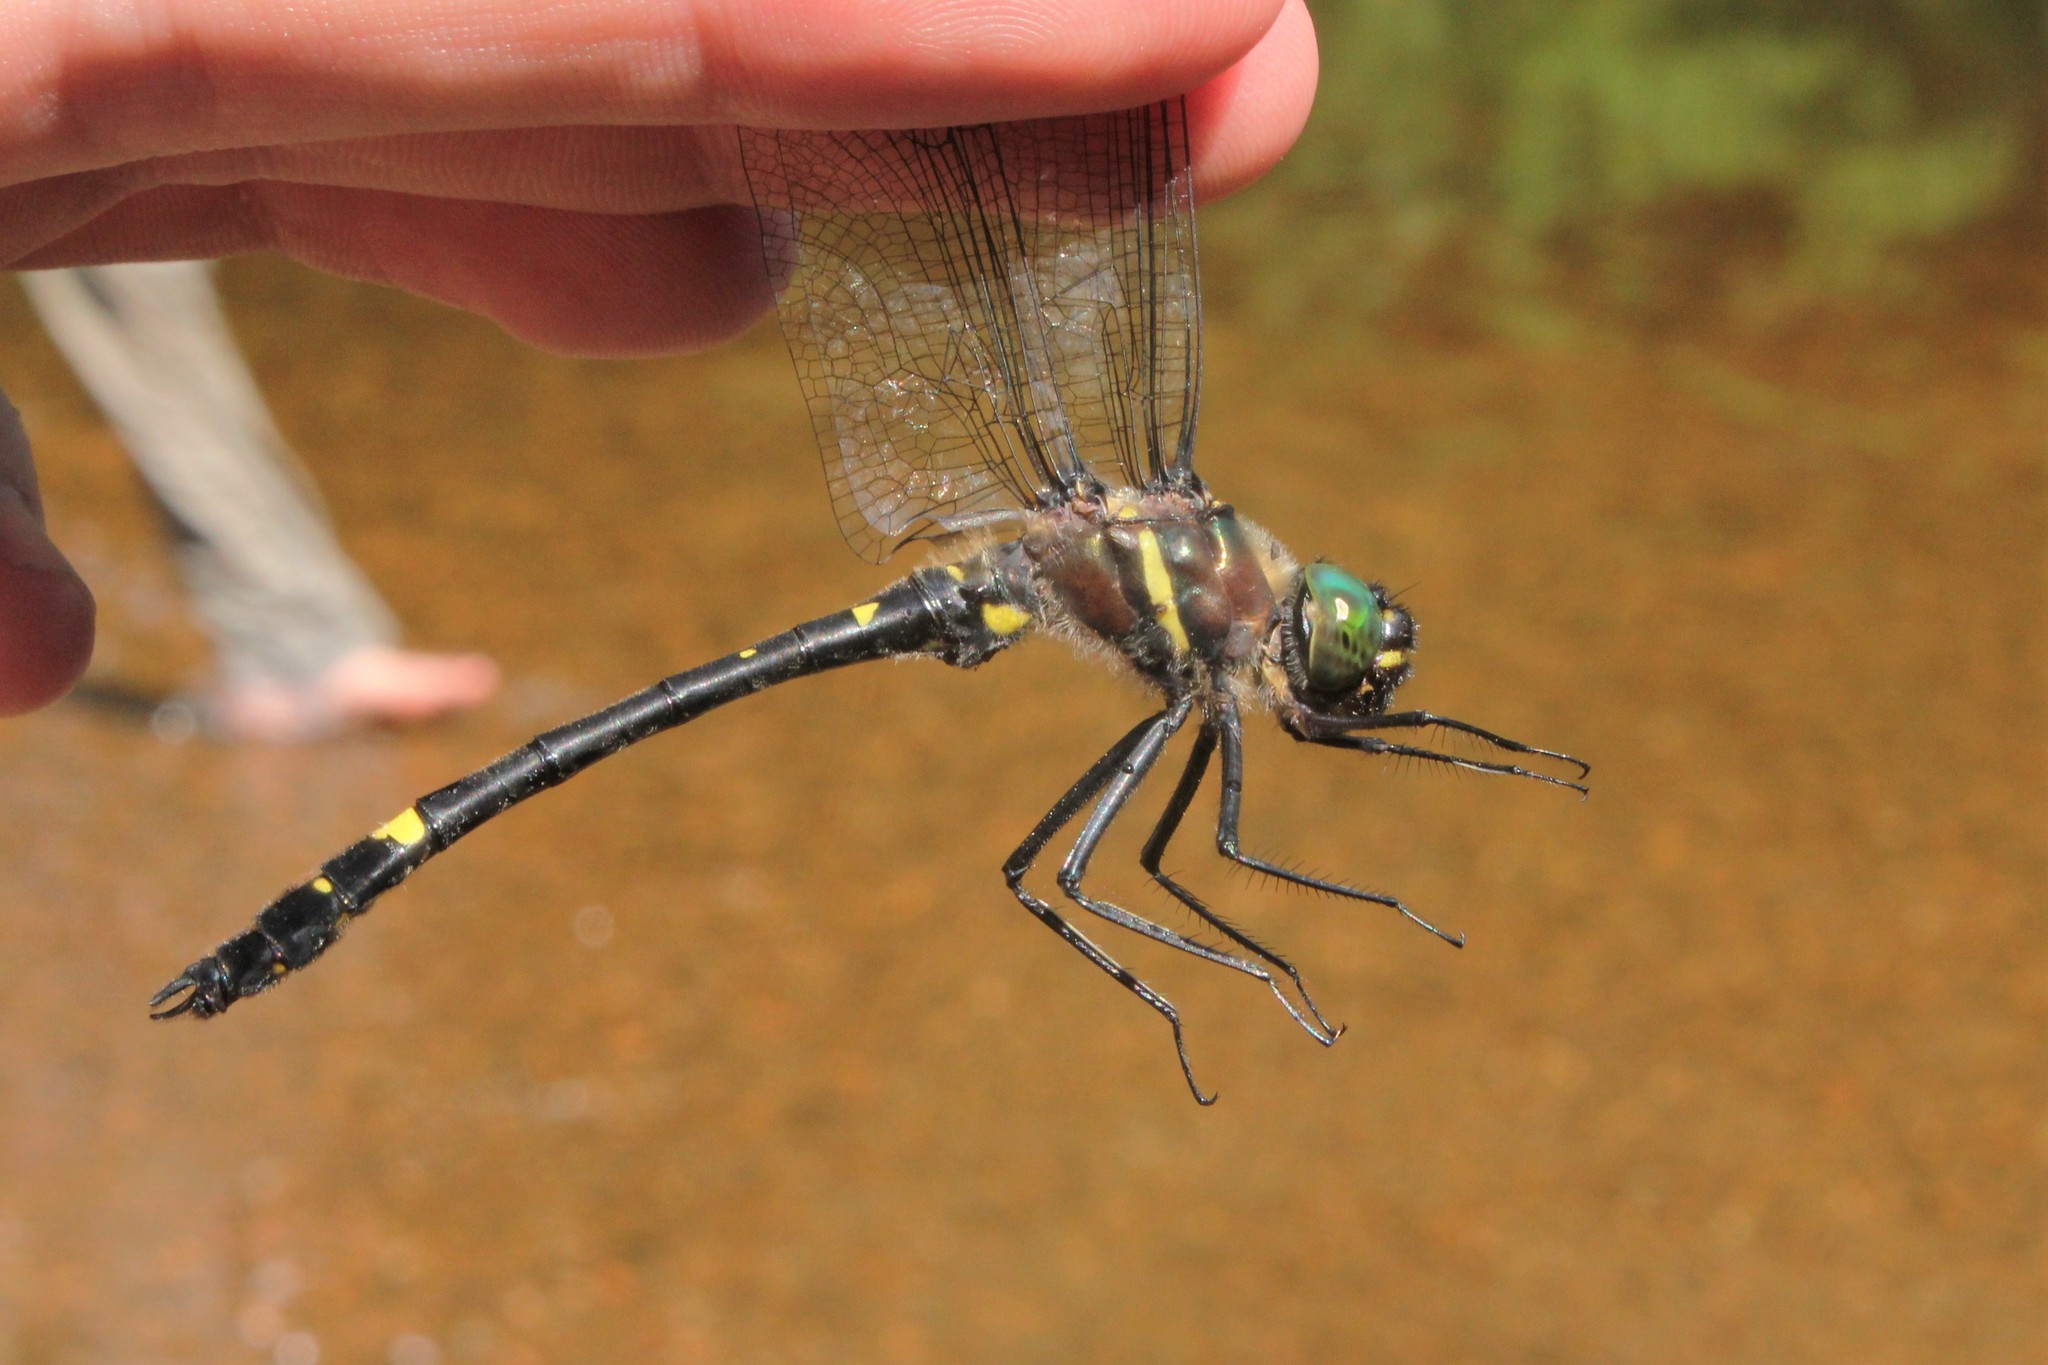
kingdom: Animalia
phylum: Arthropoda
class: Insecta
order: Odonata
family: Macromiidae
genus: Macromia
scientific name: Macromia illinoiensis
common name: Swift river cruiser
